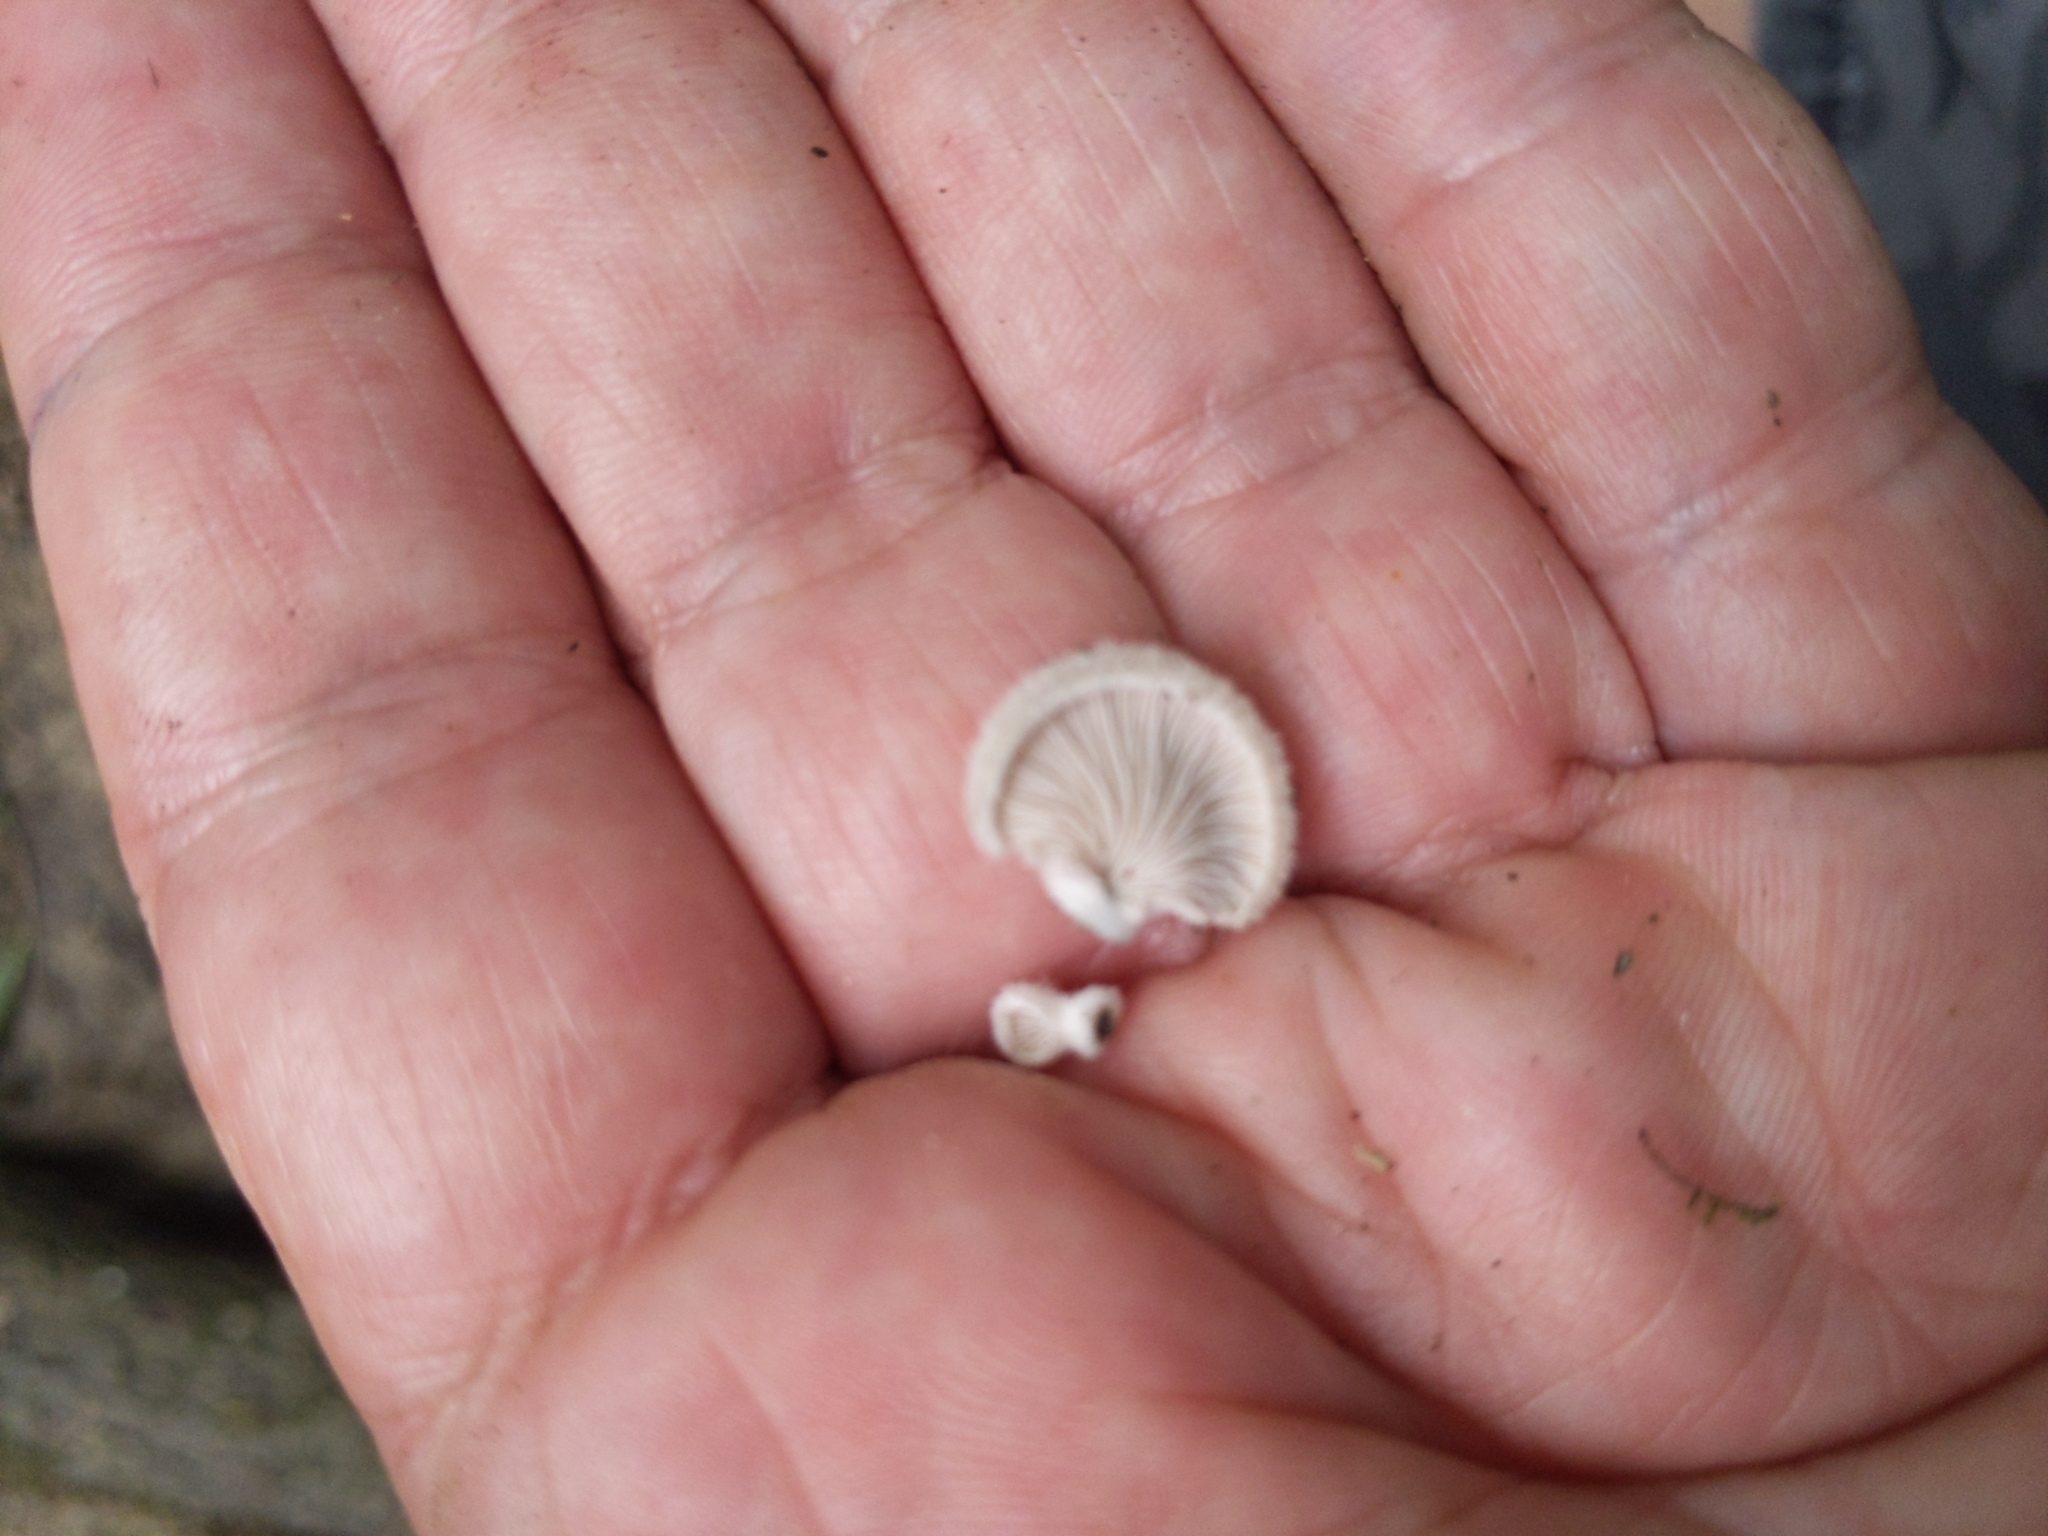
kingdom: Fungi
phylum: Basidiomycota
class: Agaricomycetes
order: Agaricales
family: Schizophyllaceae
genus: Schizophyllum
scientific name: Schizophyllum commune
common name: Common porecrust
